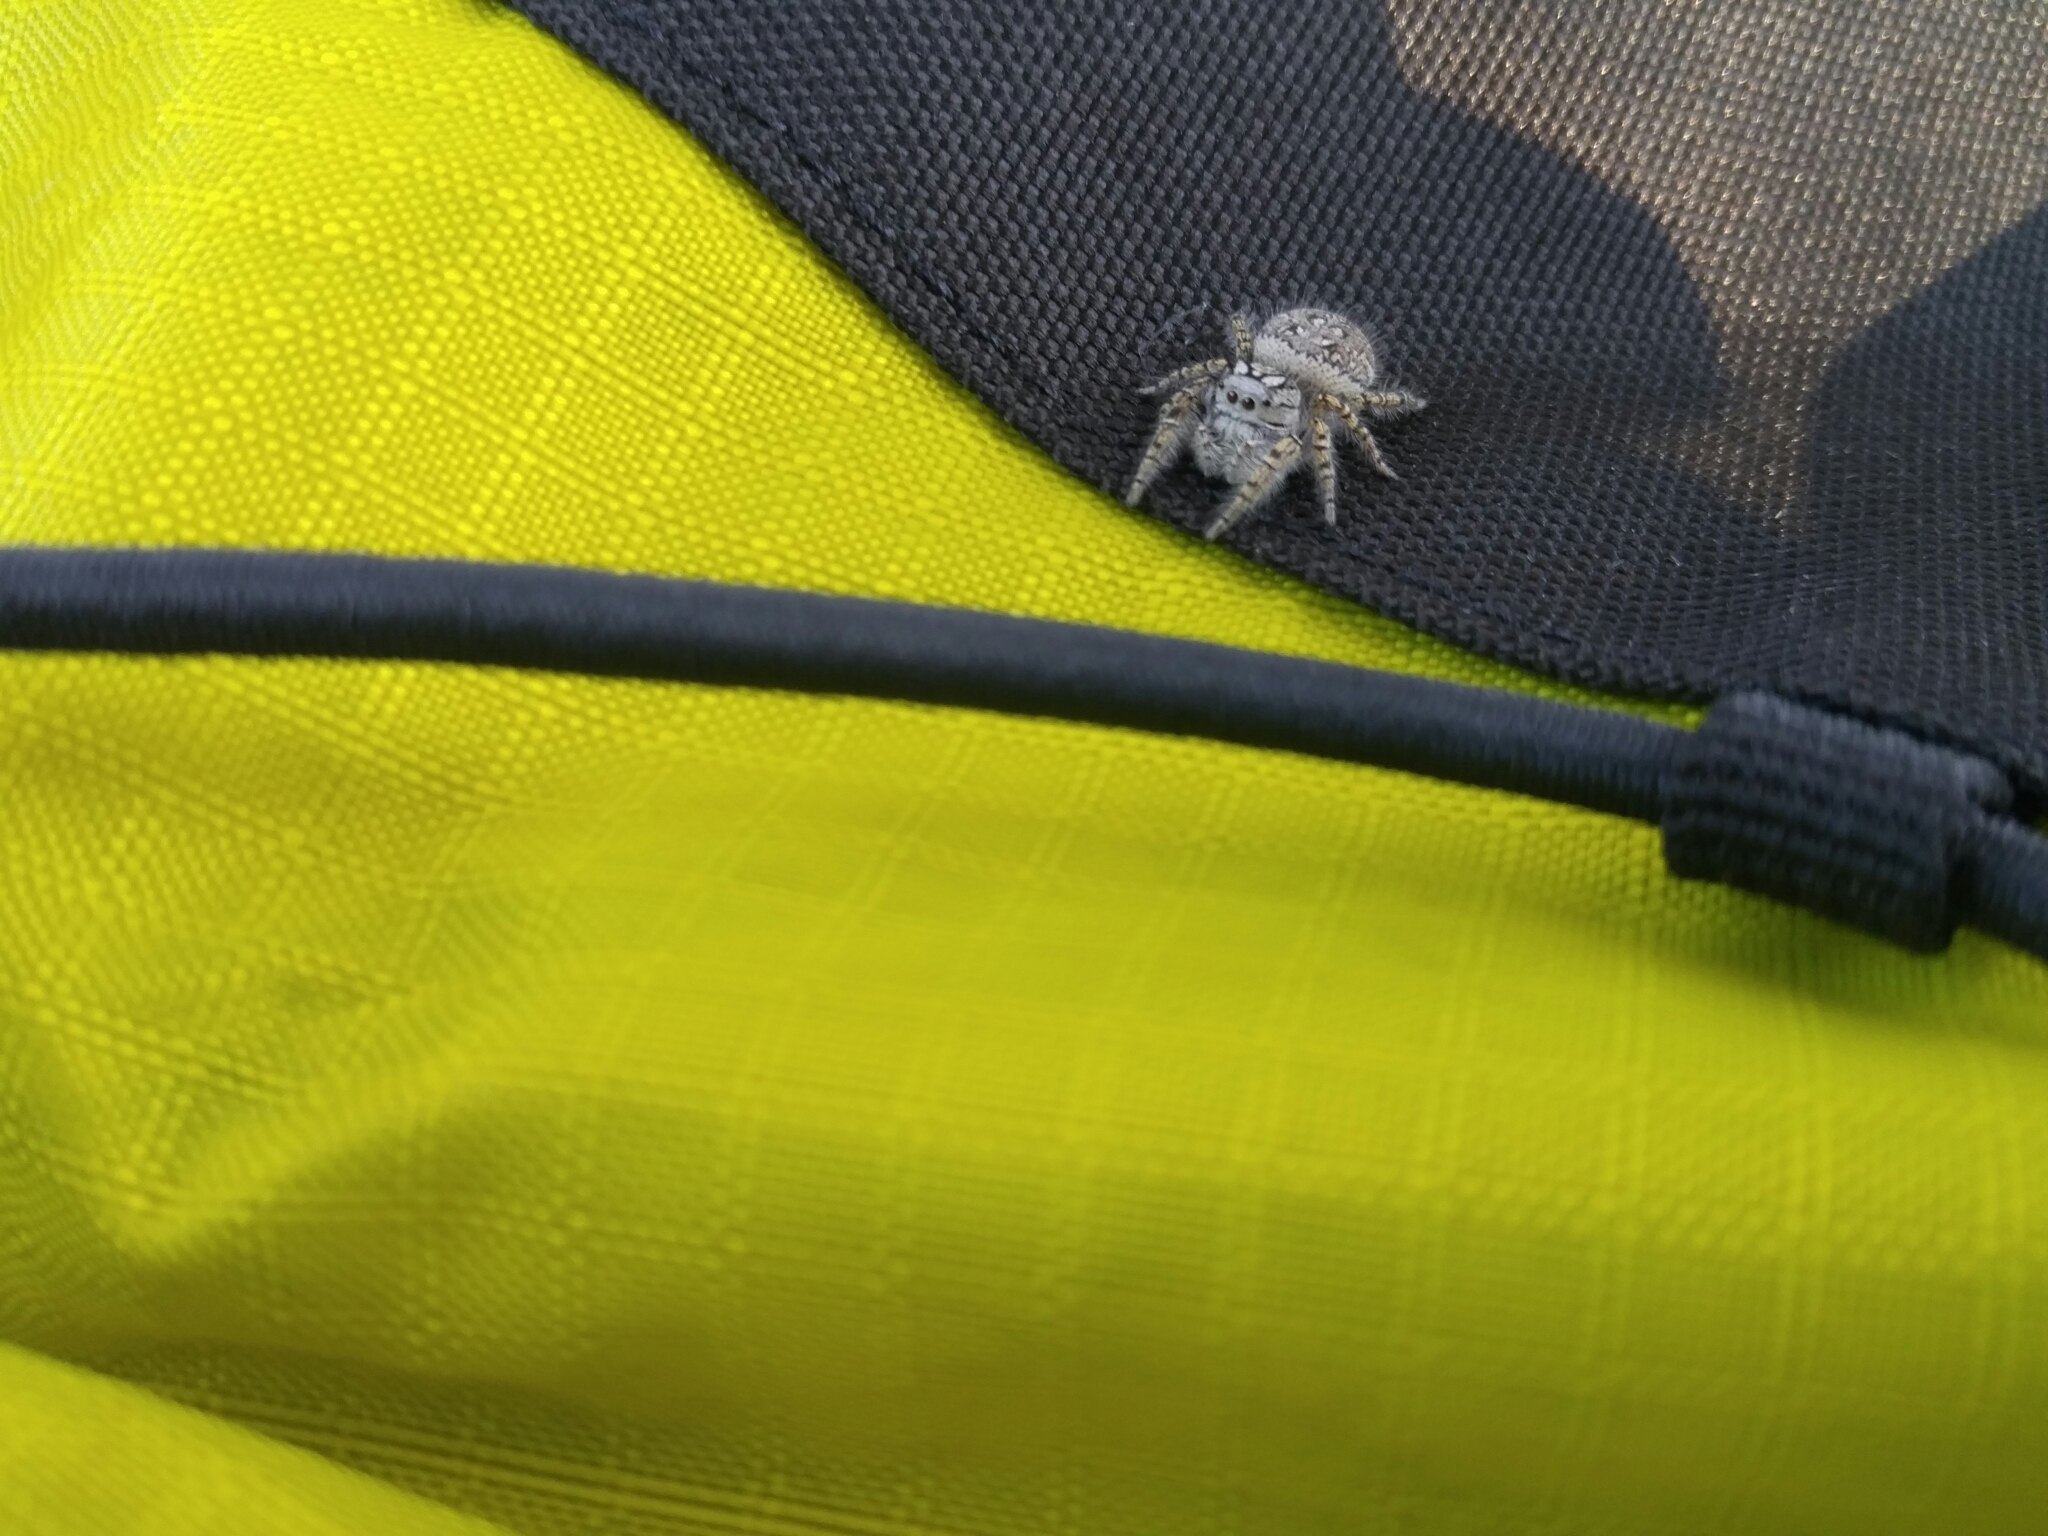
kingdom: Animalia
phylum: Arthropoda
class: Arachnida
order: Araneae
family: Salticidae
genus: Phidippus
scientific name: Phidippus mystaceus
